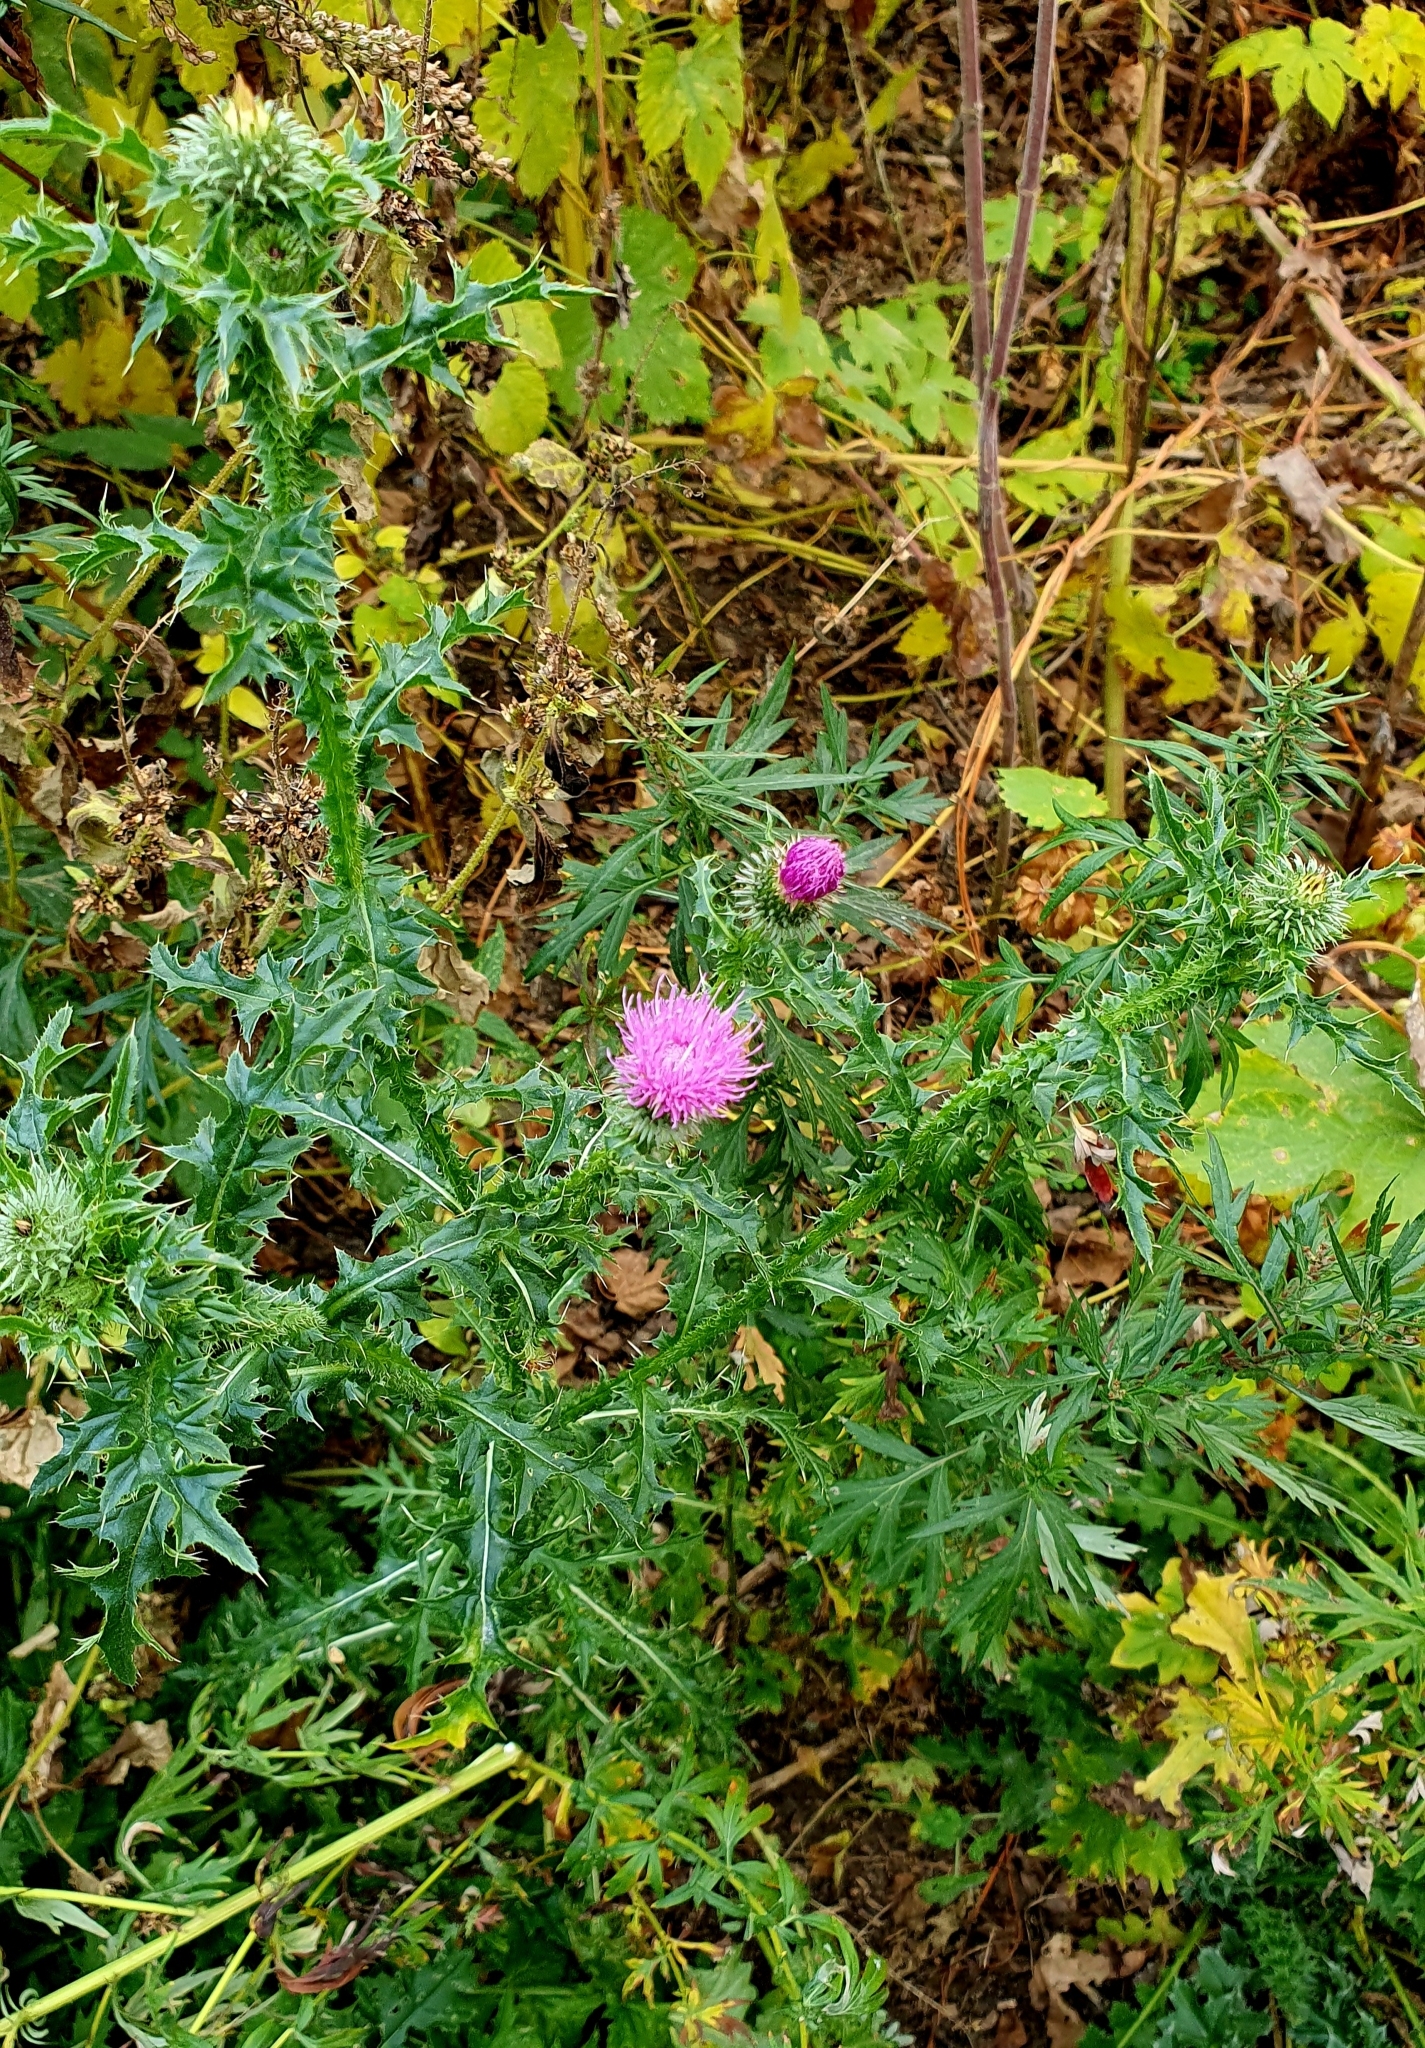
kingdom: Plantae
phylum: Tracheophyta
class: Magnoliopsida
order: Asterales
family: Asteraceae
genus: Carduus
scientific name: Carduus acanthoides
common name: Plumeless thistle
